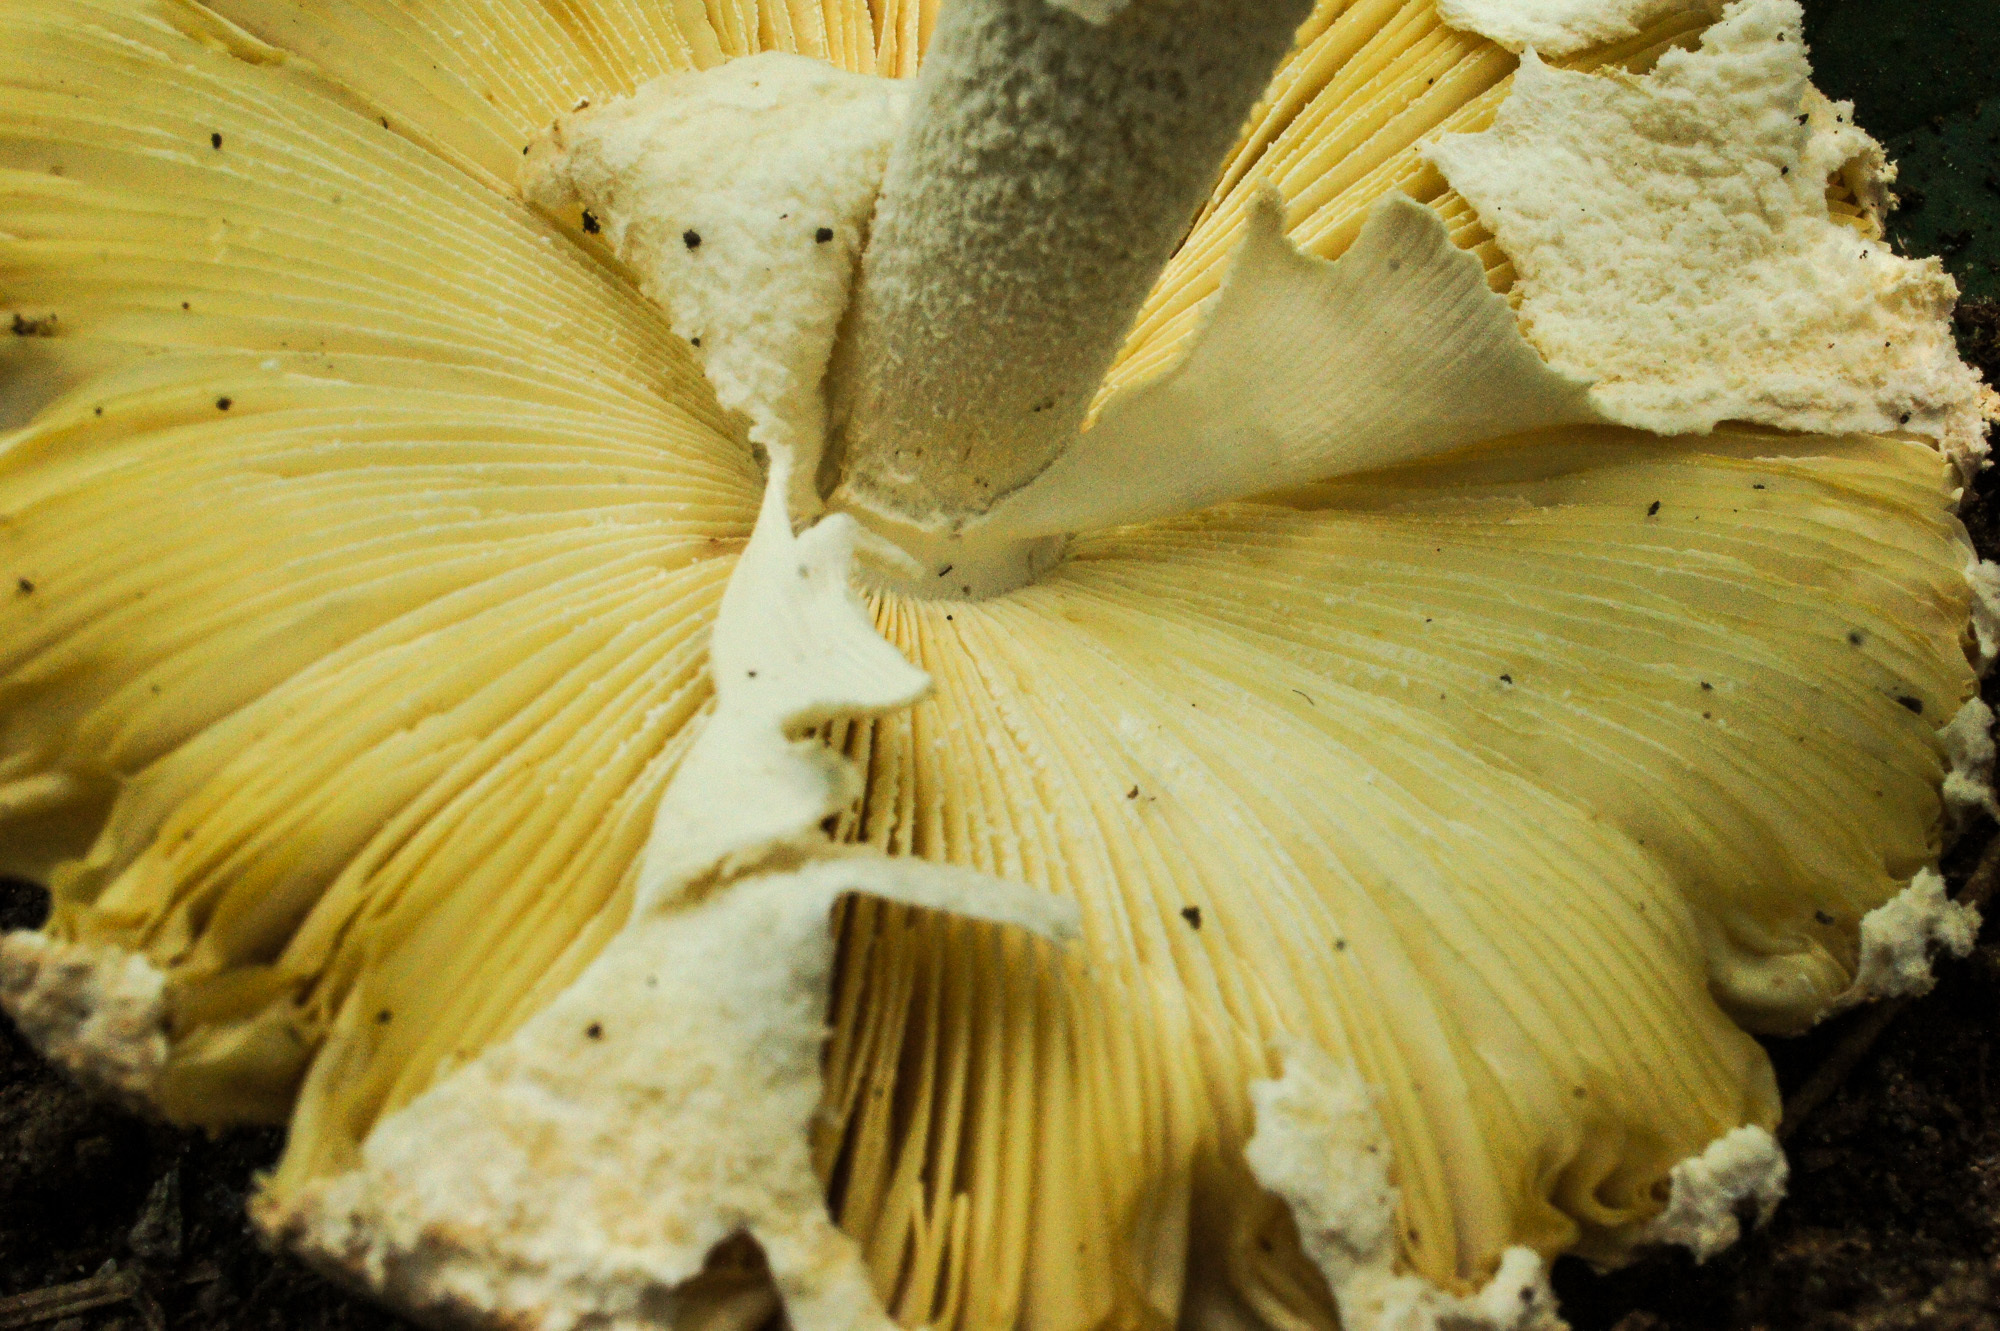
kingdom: Fungi
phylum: Basidiomycota
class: Agaricomycetes
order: Agaricales
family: Amanitaceae
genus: Amanita
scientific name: Amanita ravenelii
